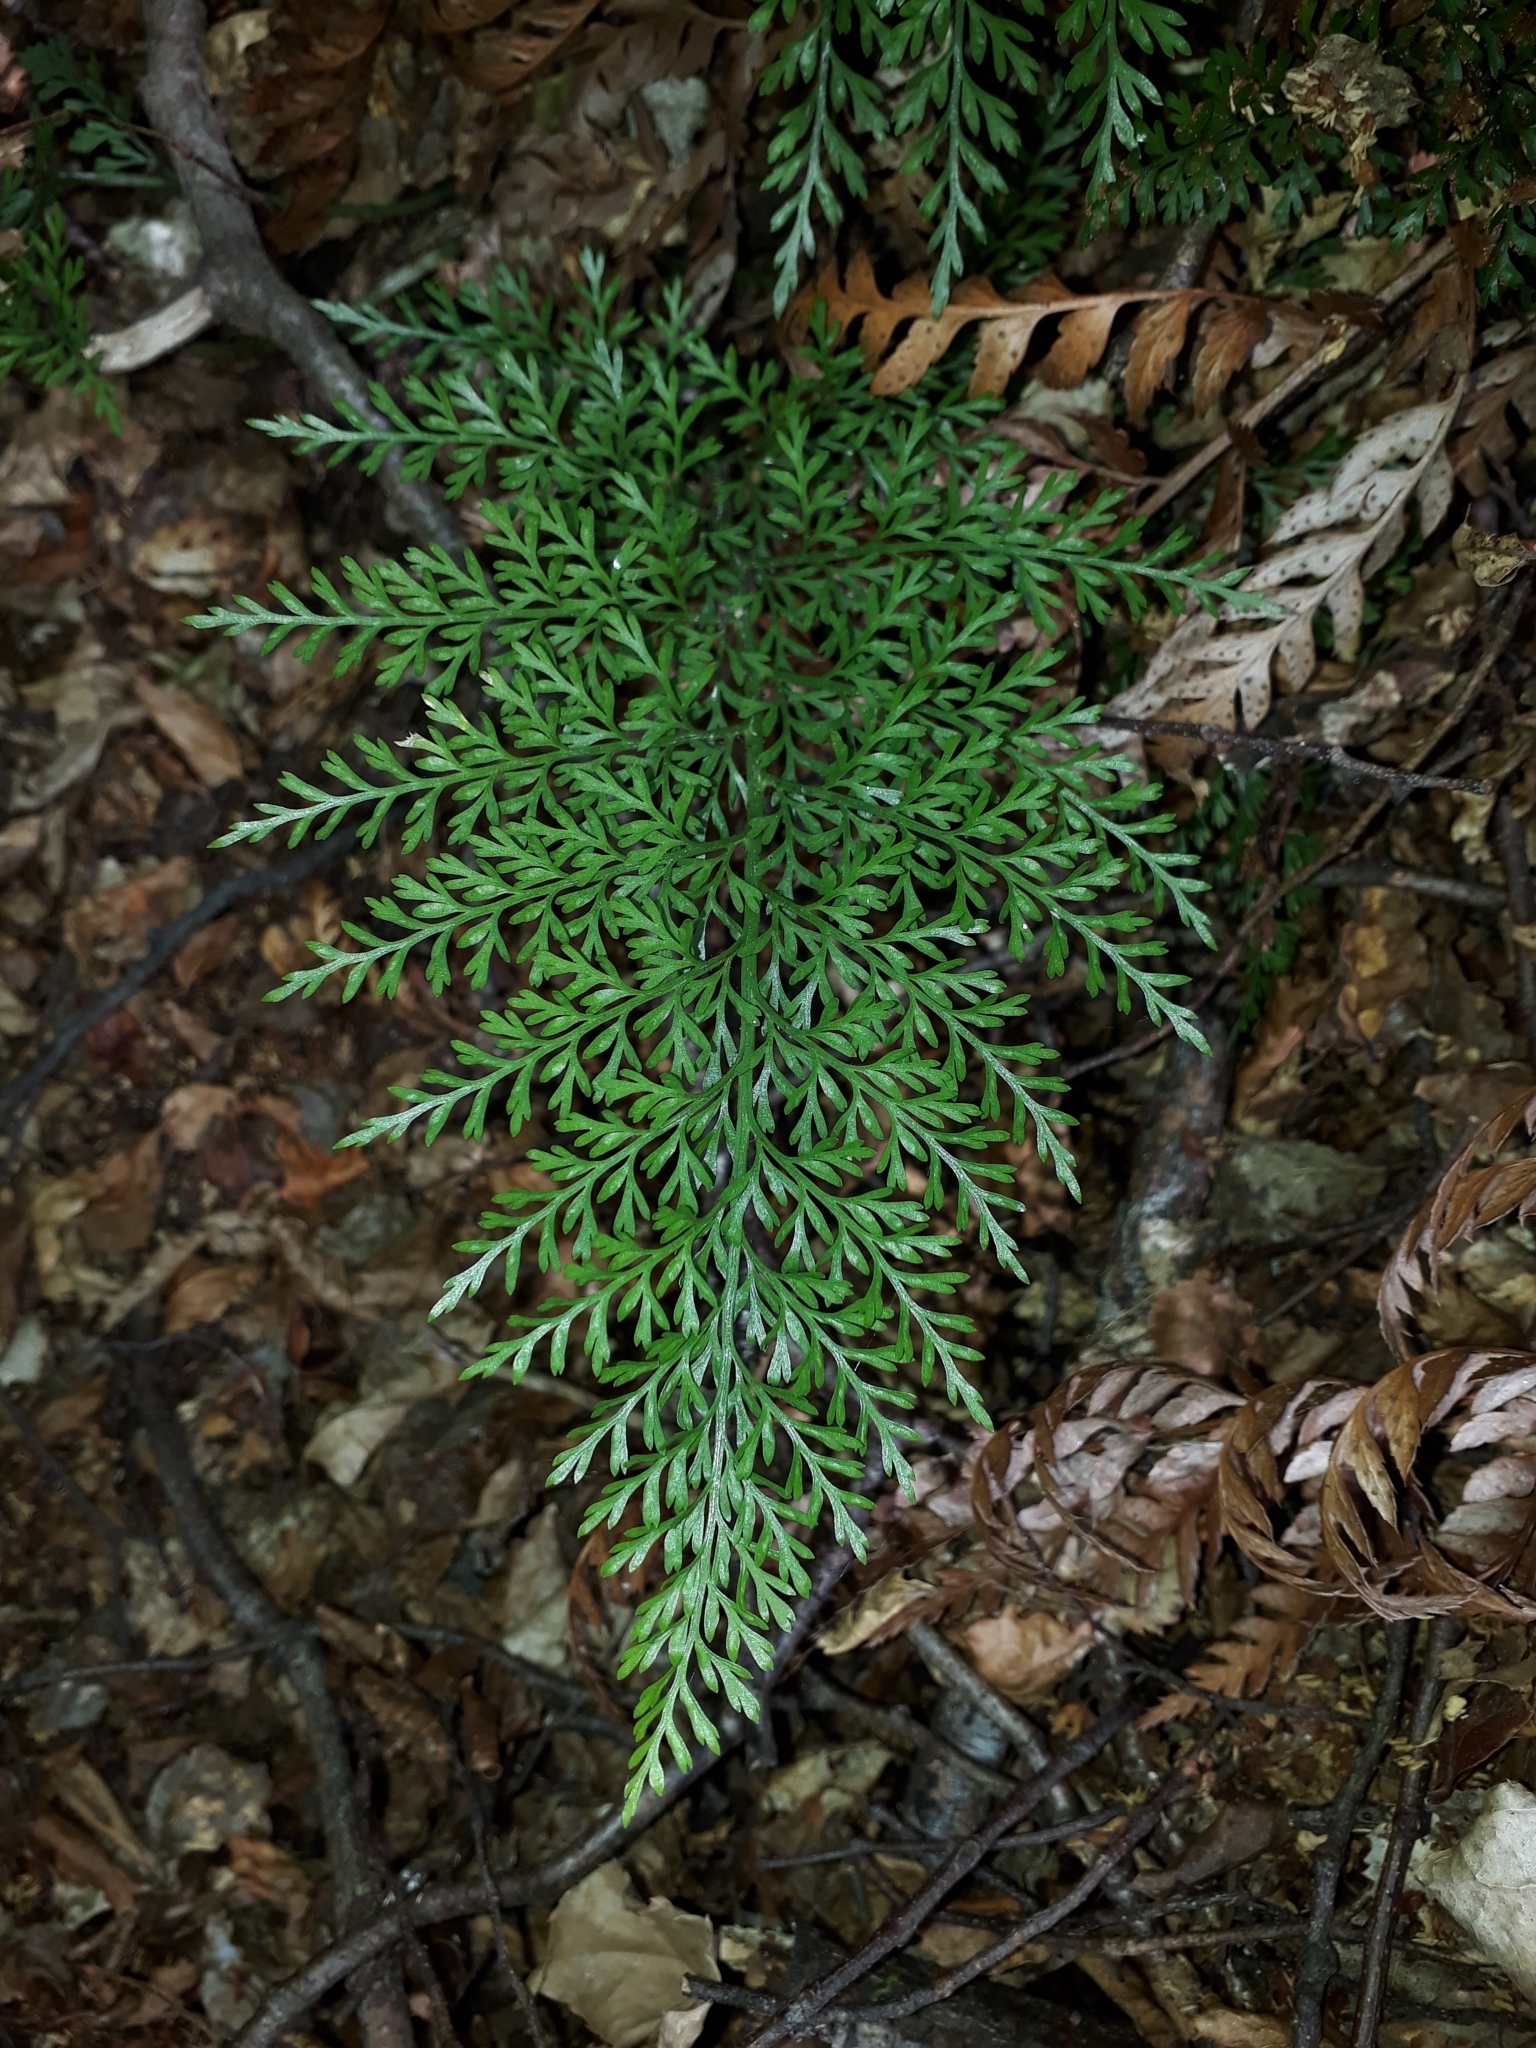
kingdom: Plantae
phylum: Tracheophyta
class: Polypodiopsida
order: Polypodiales
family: Aspleniaceae
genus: Asplenium
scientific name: Asplenium richardii
